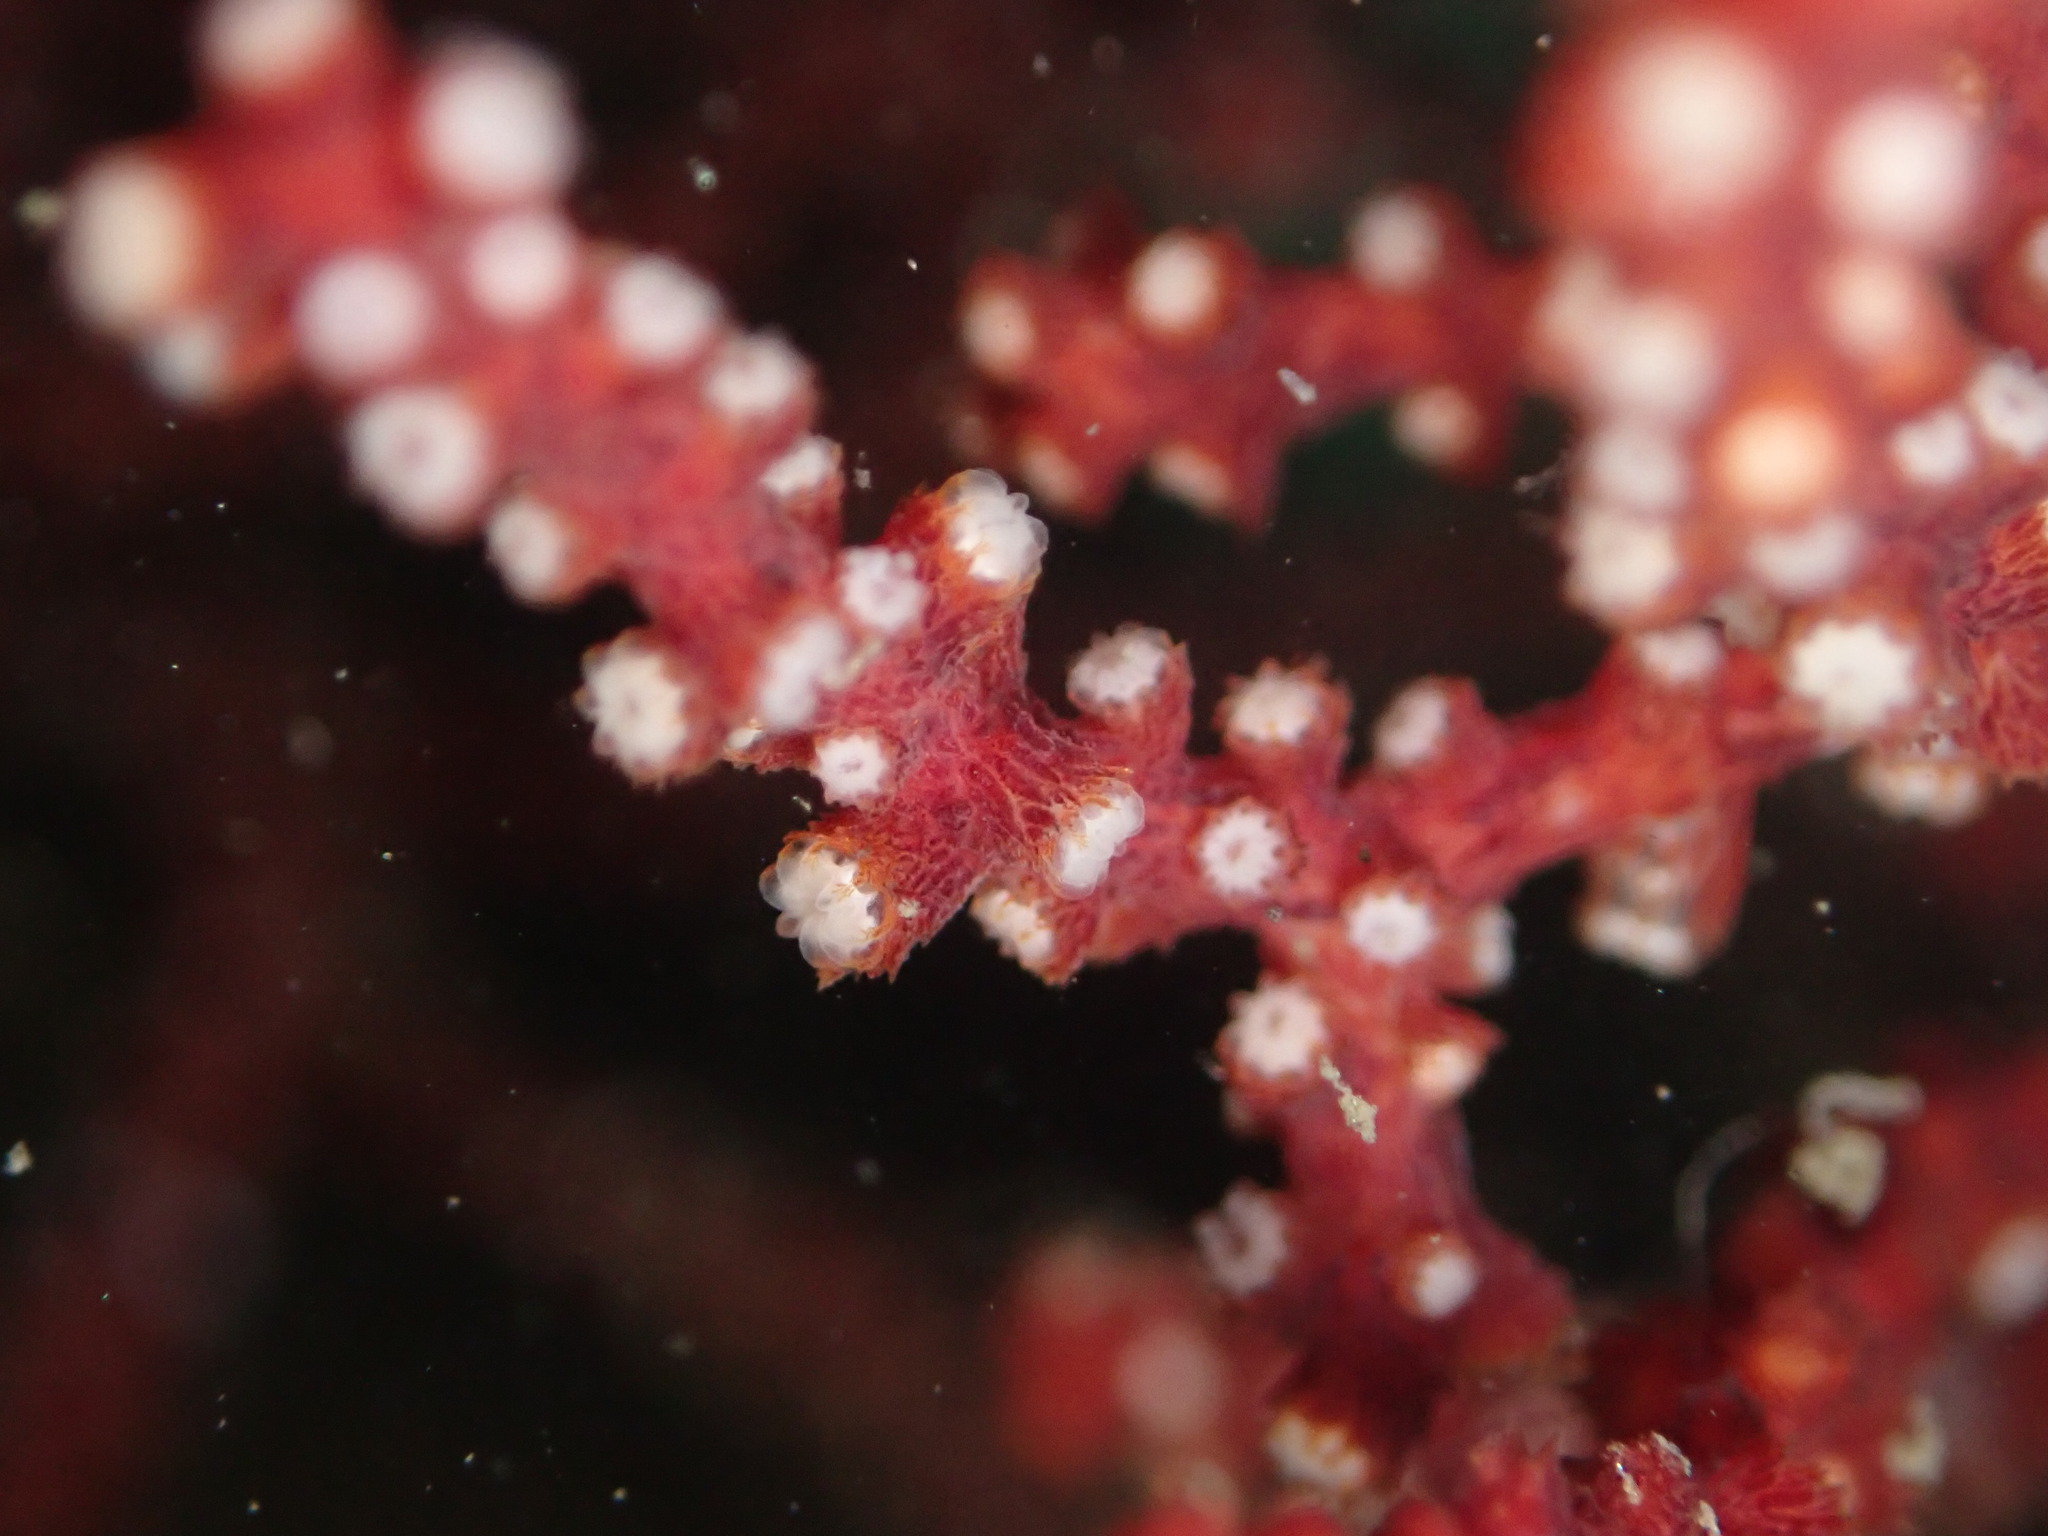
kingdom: Animalia
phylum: Cnidaria
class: Anthozoa
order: Malacalcyonacea
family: Plexauridae
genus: Muricea
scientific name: Muricea fruticosa
